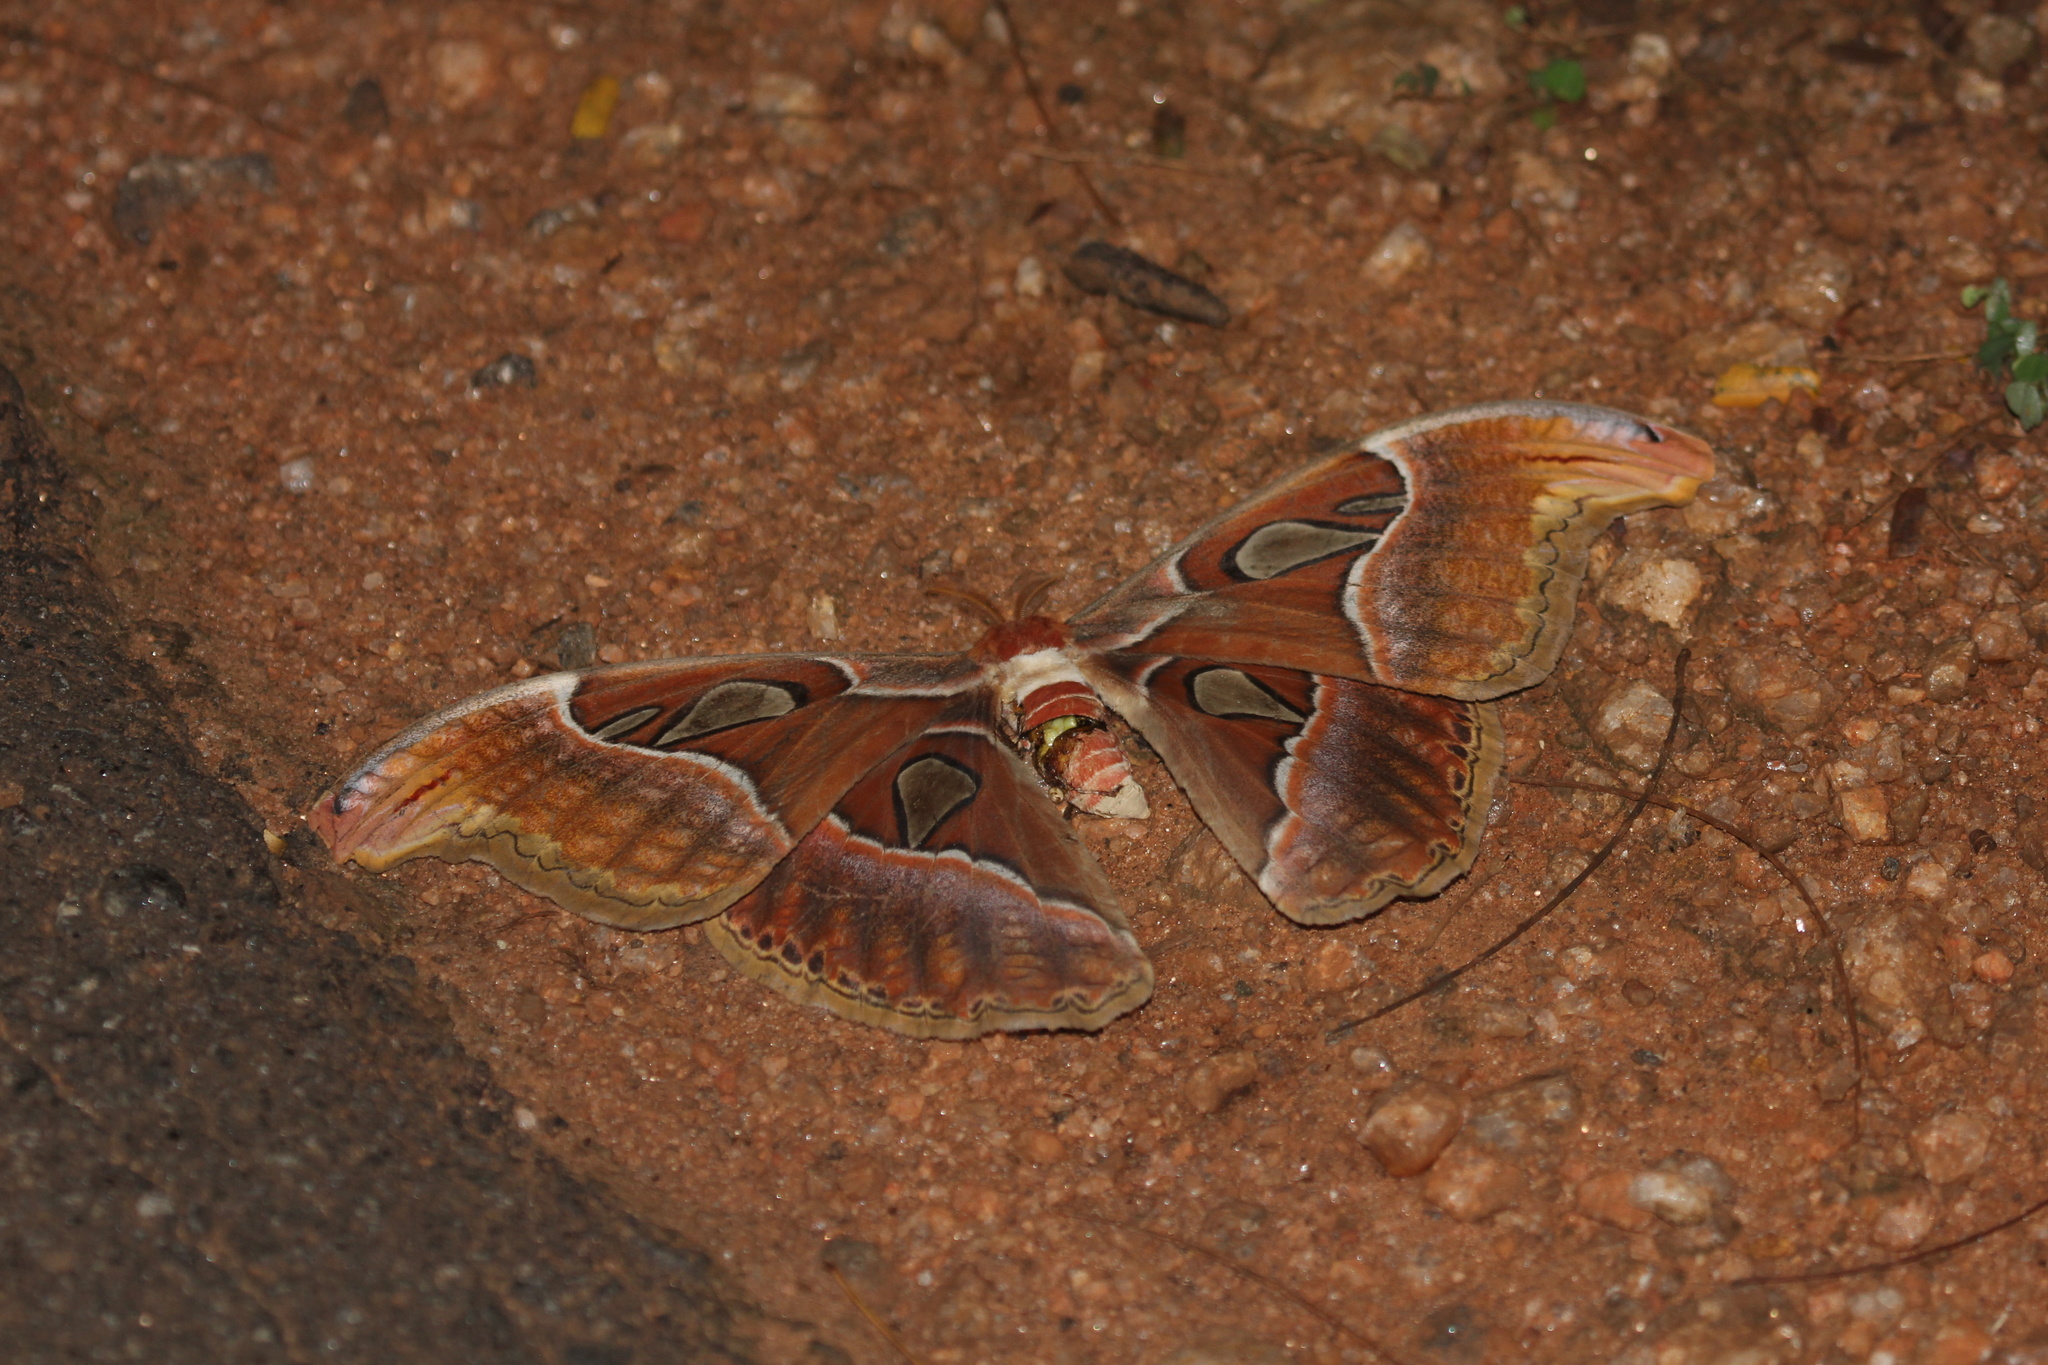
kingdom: Animalia
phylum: Arthropoda
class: Insecta
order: Lepidoptera
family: Saturniidae
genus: Attacus
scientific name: Attacus taprobanis
